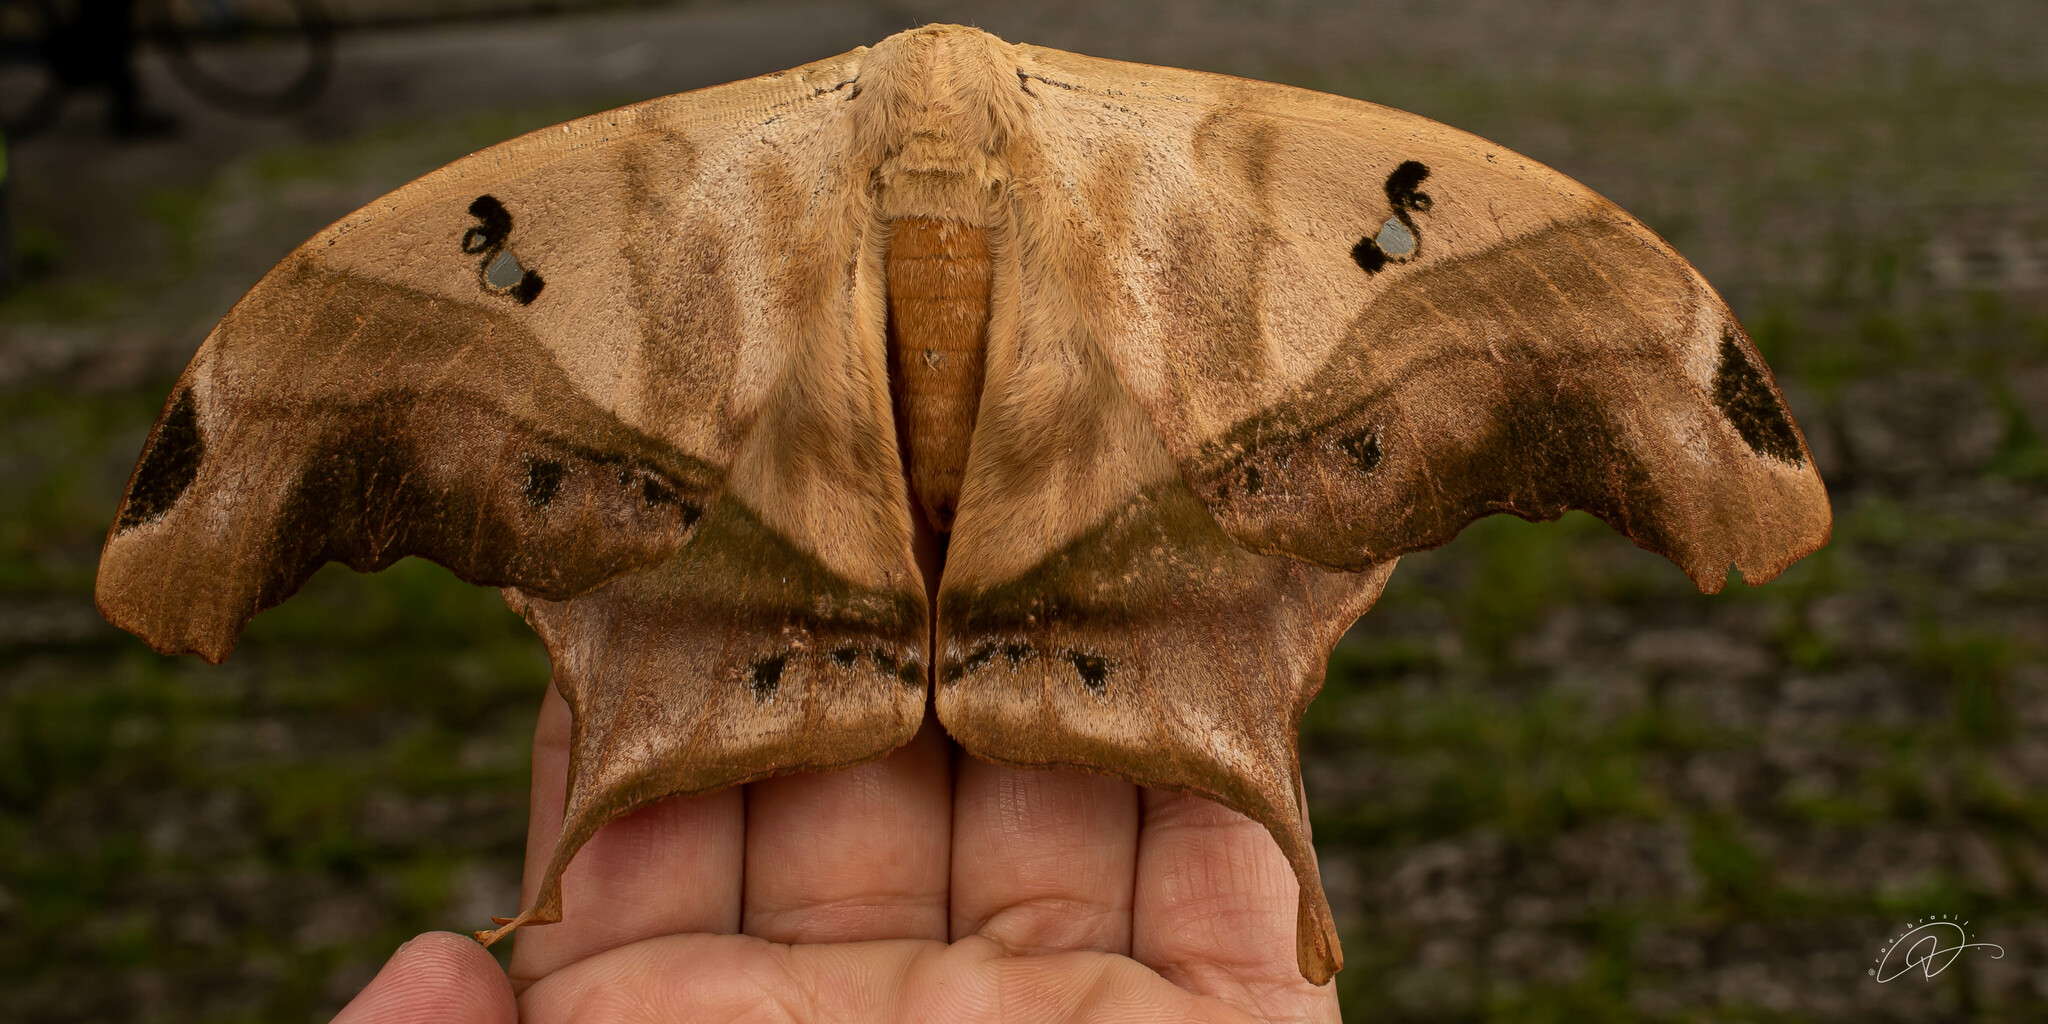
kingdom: Animalia
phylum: Arthropoda
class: Insecta
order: Lepidoptera
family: Saturniidae
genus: Titaea
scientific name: Titaea tamerlan
